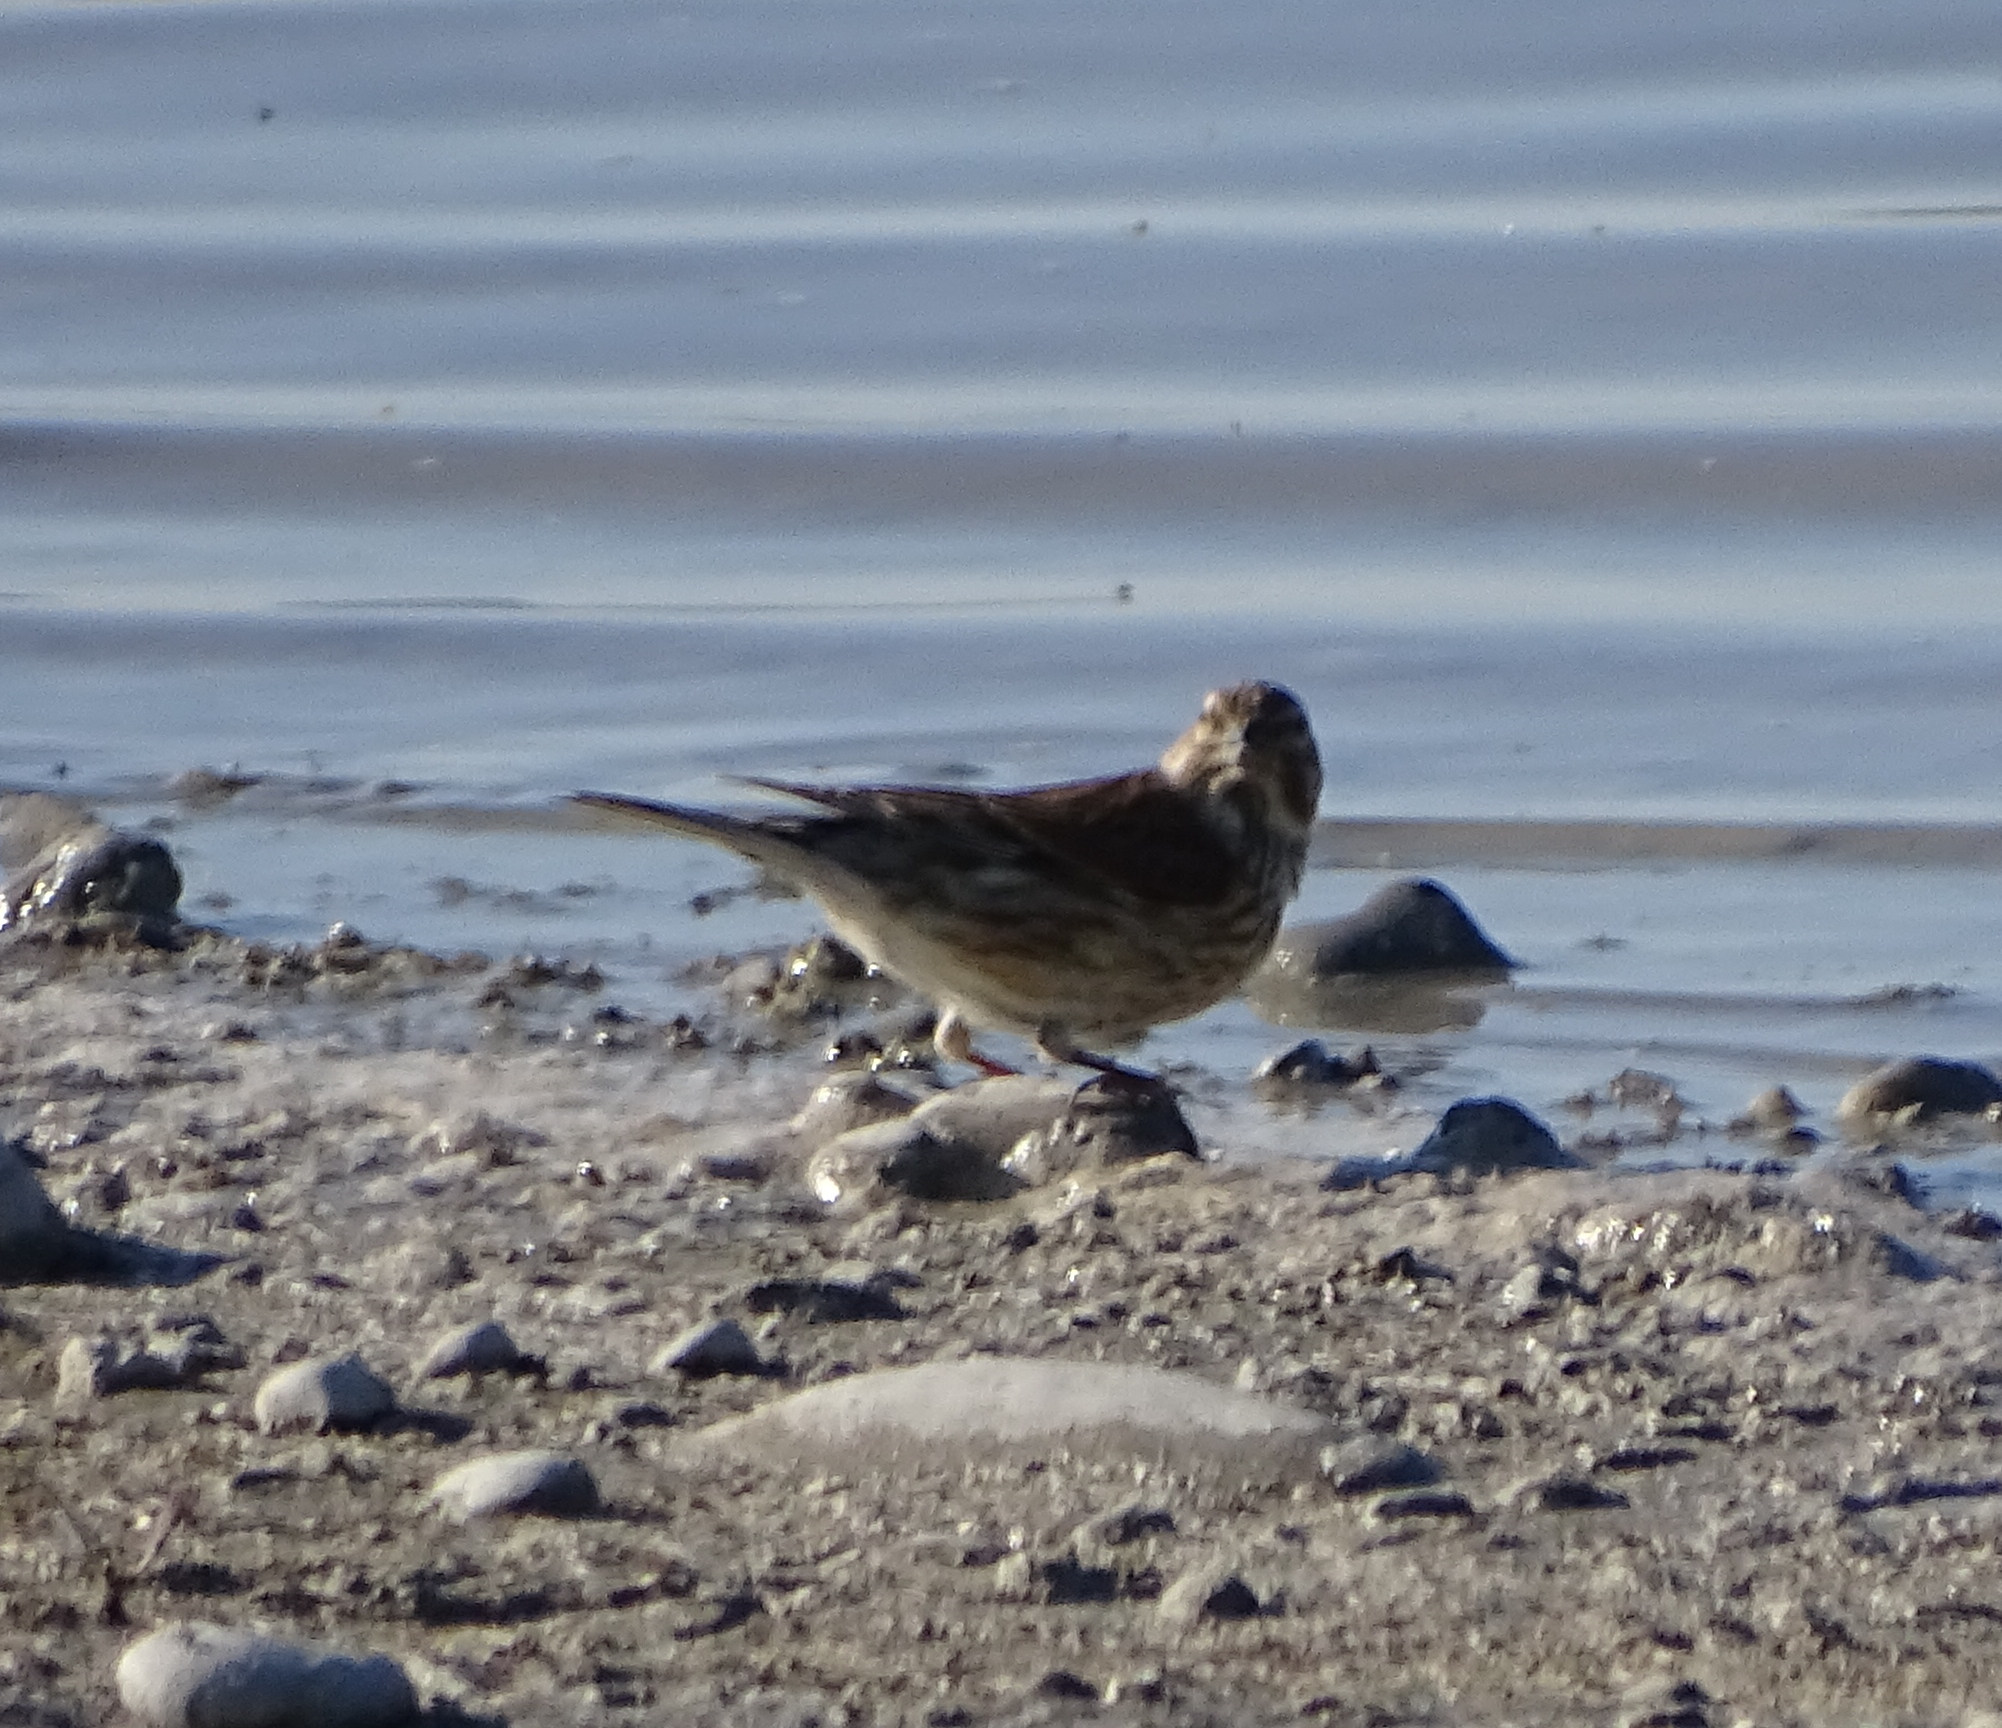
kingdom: Animalia
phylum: Chordata
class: Aves
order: Passeriformes
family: Fringillidae
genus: Linaria
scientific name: Linaria cannabina
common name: Common linnet
